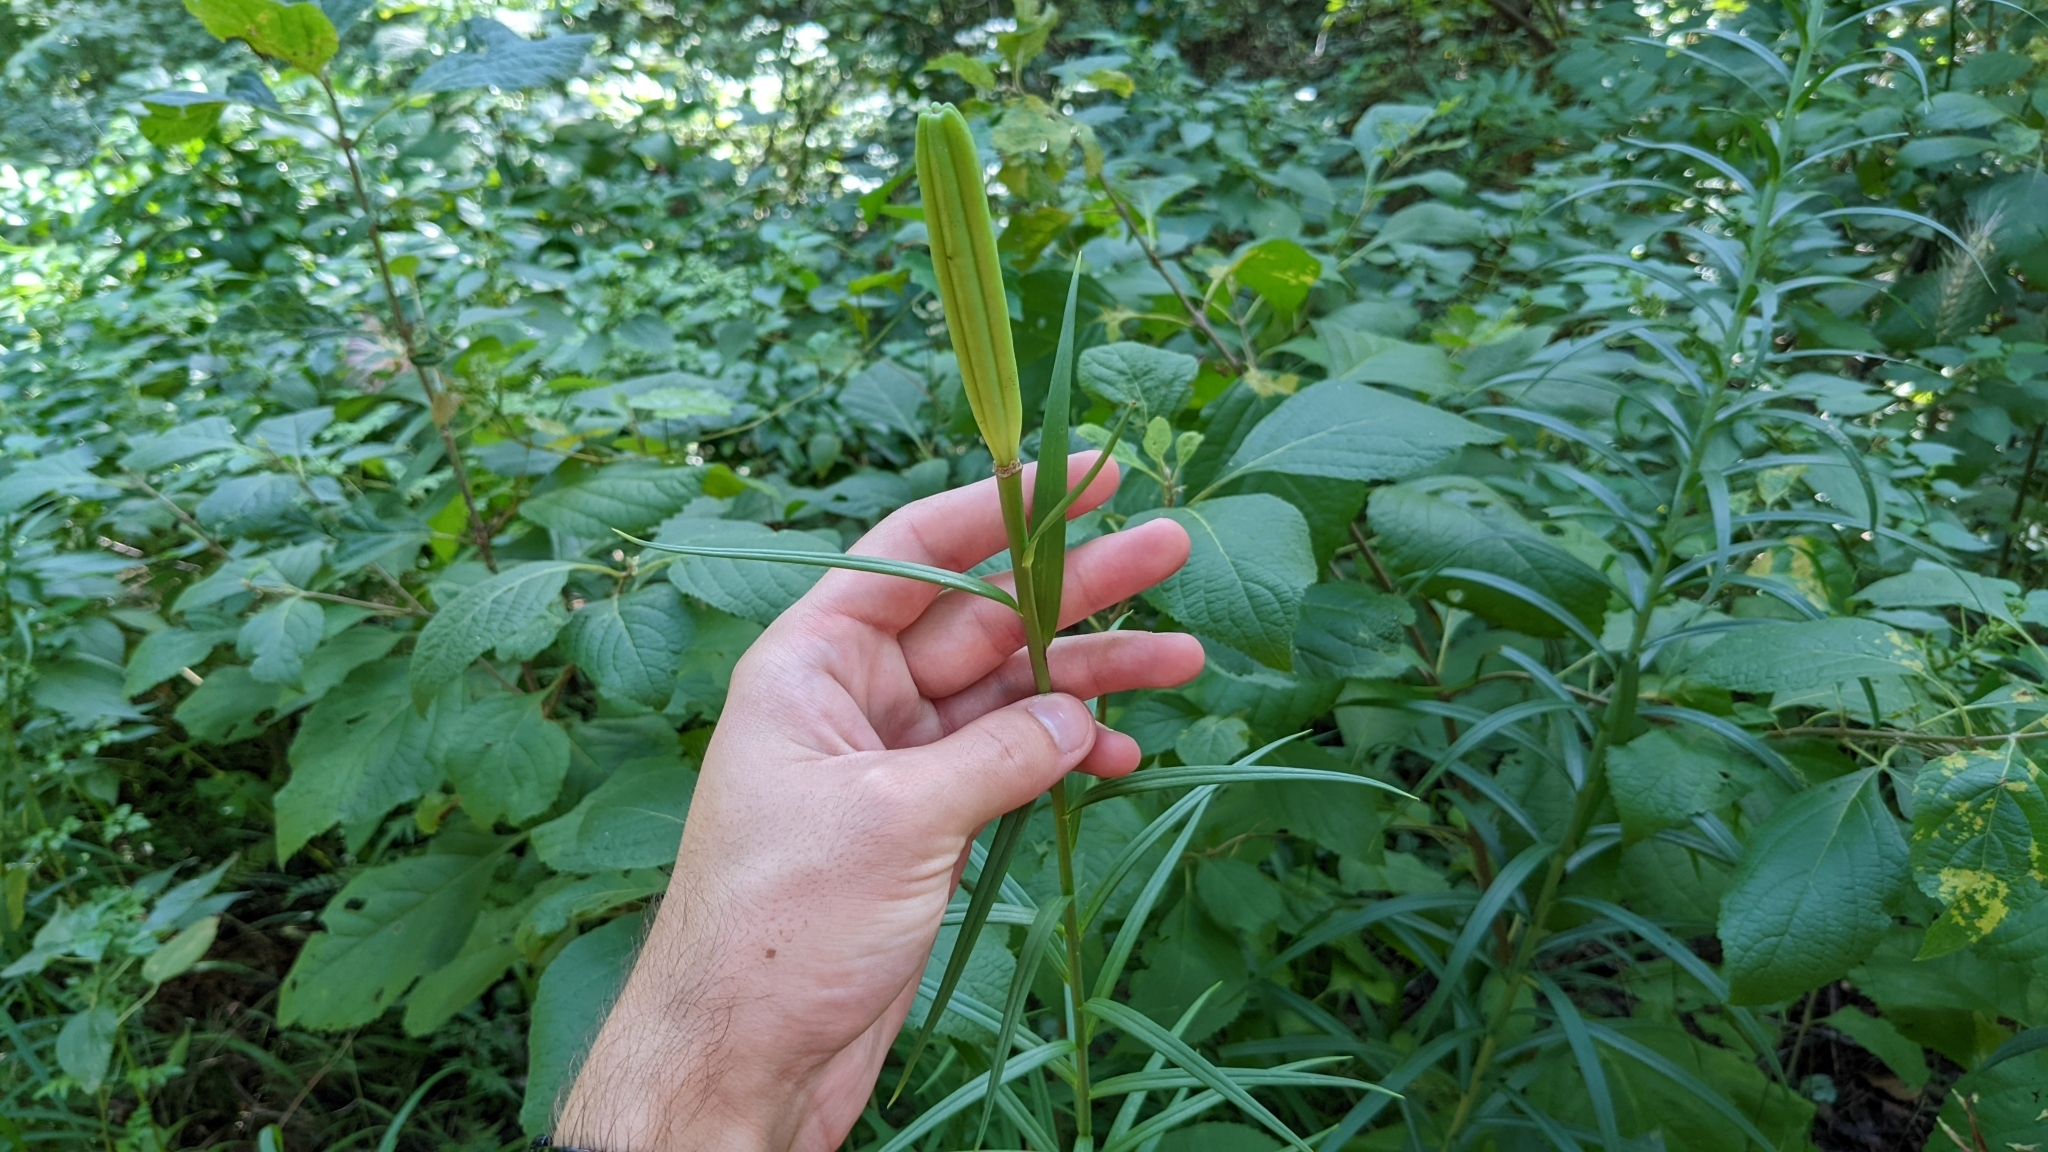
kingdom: Plantae
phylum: Tracheophyta
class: Liliopsida
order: Liliales
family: Liliaceae
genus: Lilium
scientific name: Lilium formosanum
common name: Formosa lily
